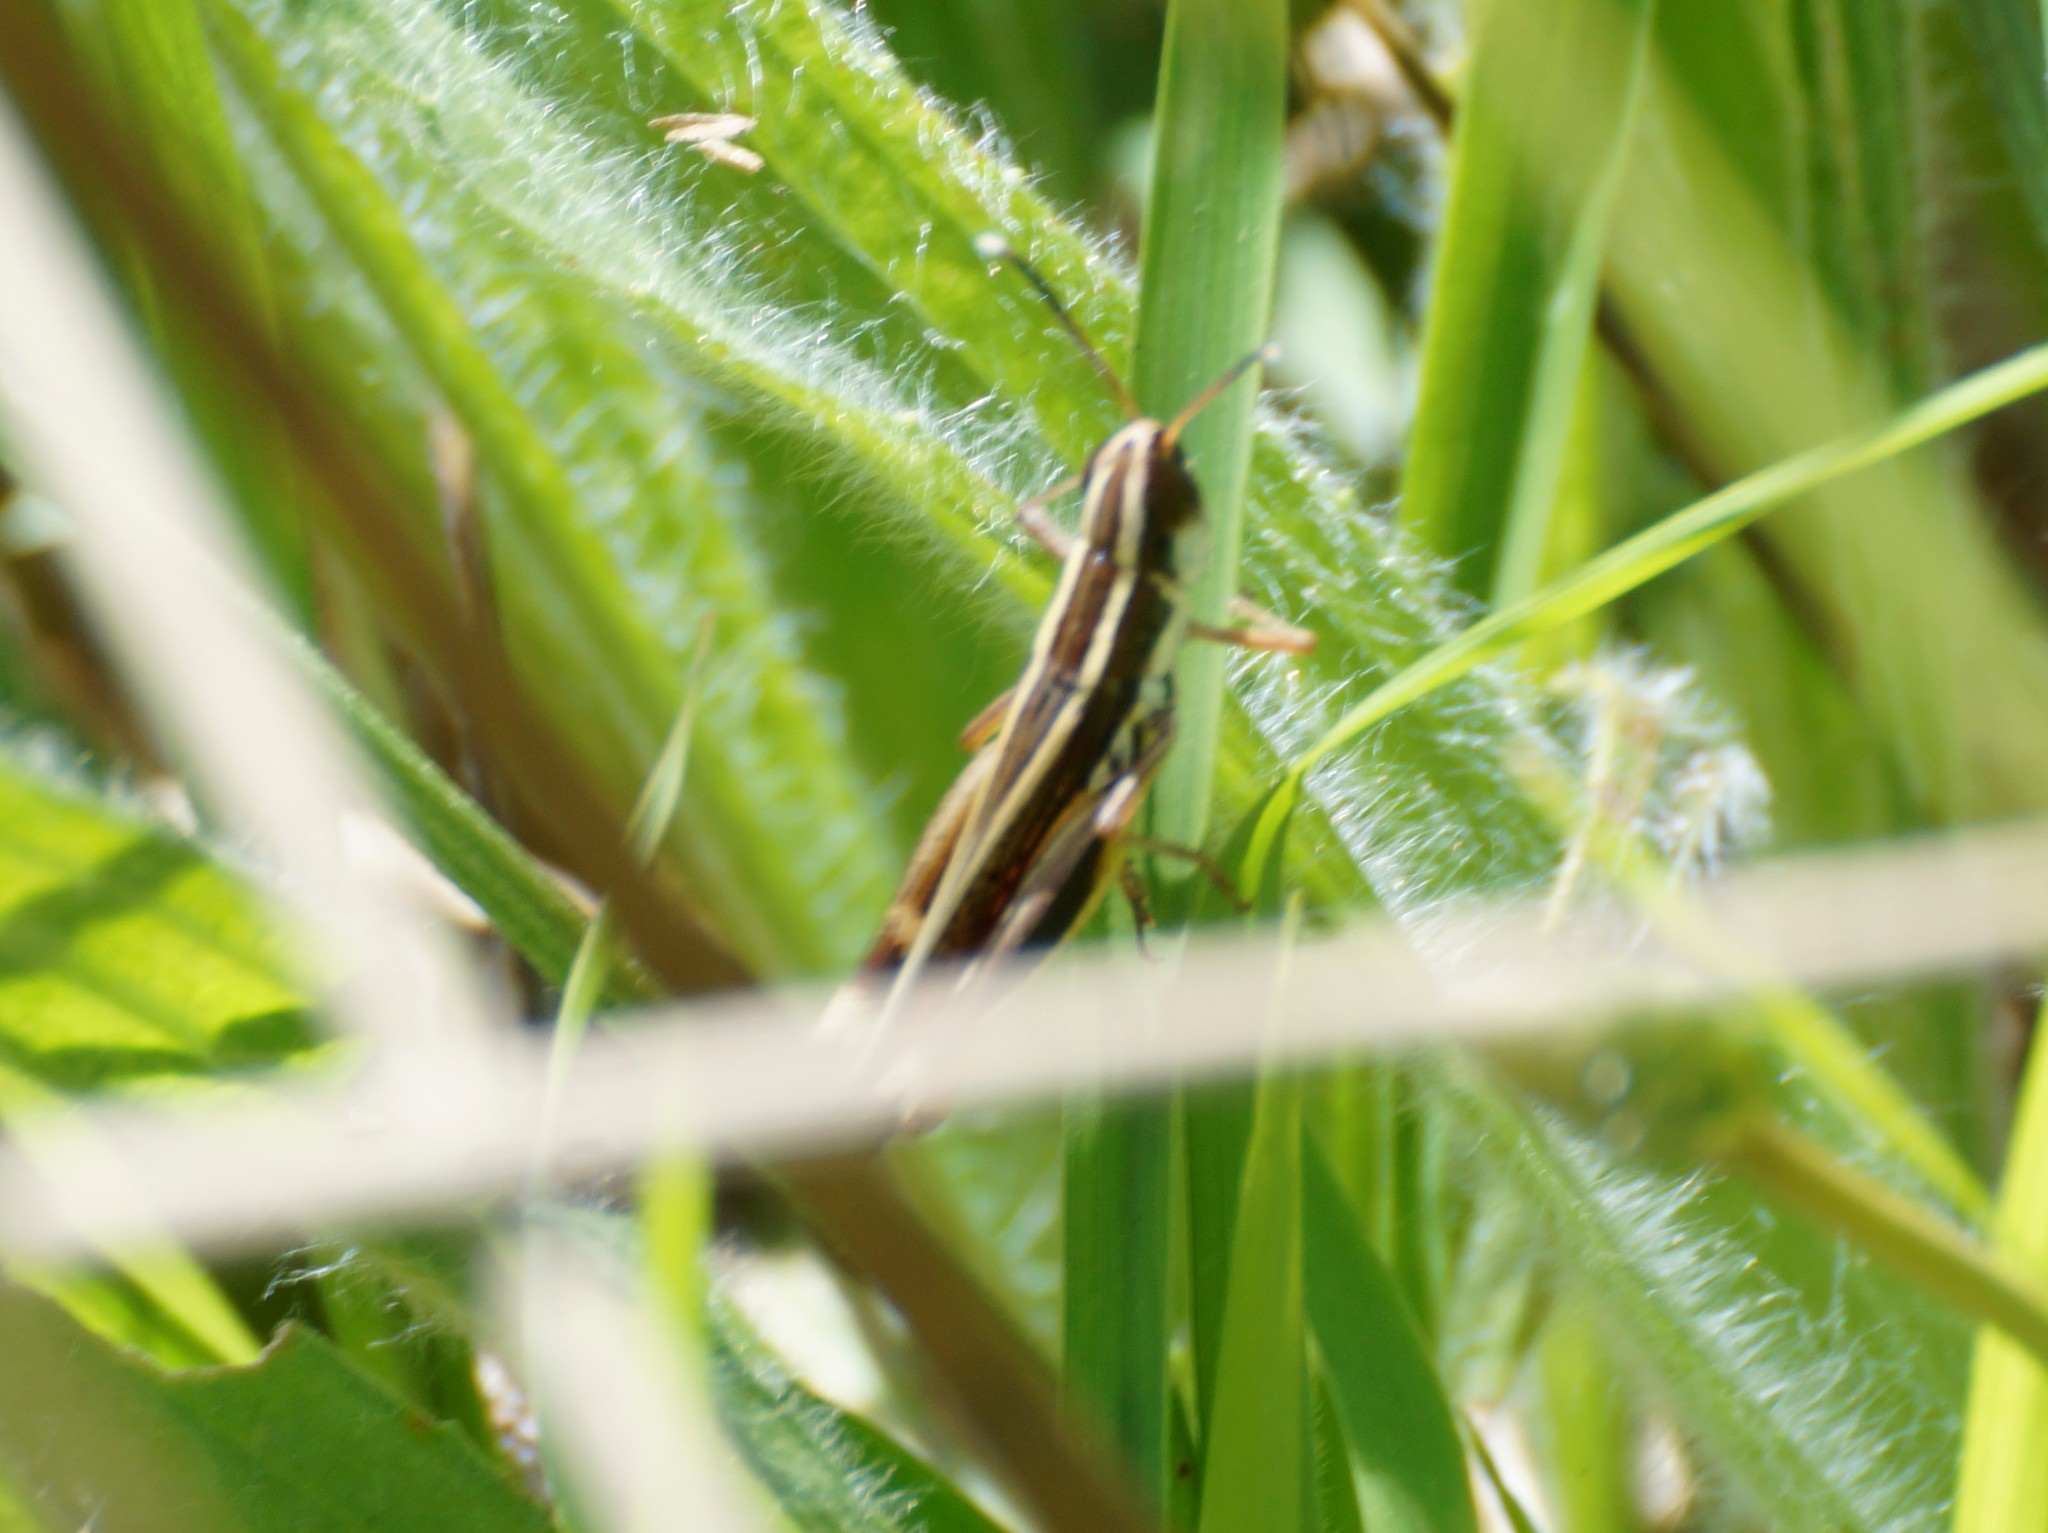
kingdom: Animalia
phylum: Arthropoda
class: Insecta
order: Orthoptera
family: Acrididae
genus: Macrotona
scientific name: Macrotona australis
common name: Common macrotona
